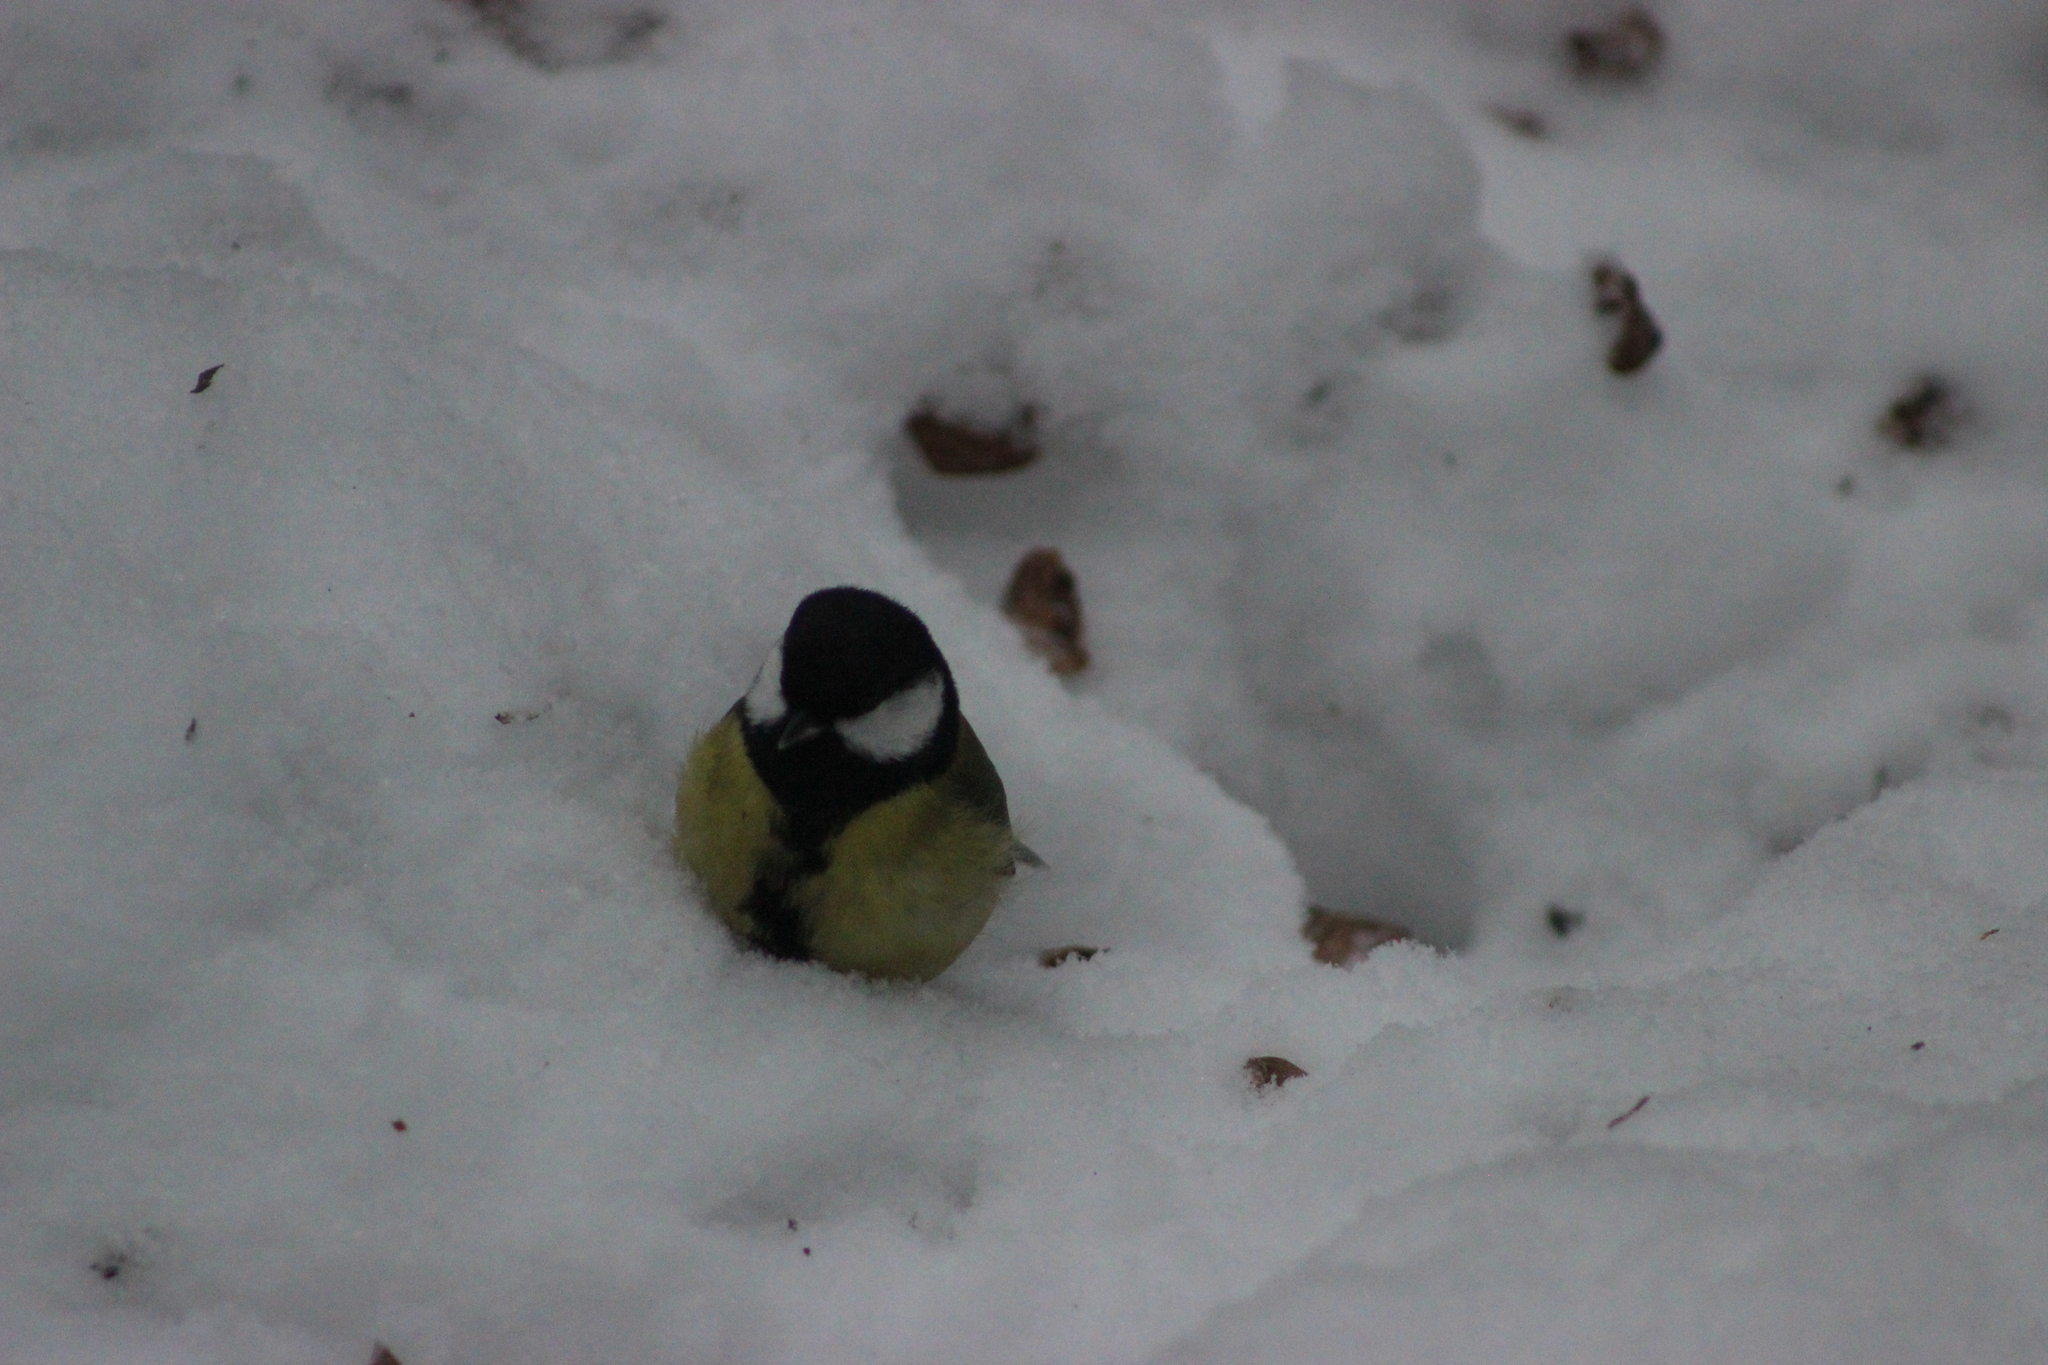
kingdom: Animalia
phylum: Chordata
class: Aves
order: Passeriformes
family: Paridae
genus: Parus
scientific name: Parus major
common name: Great tit
